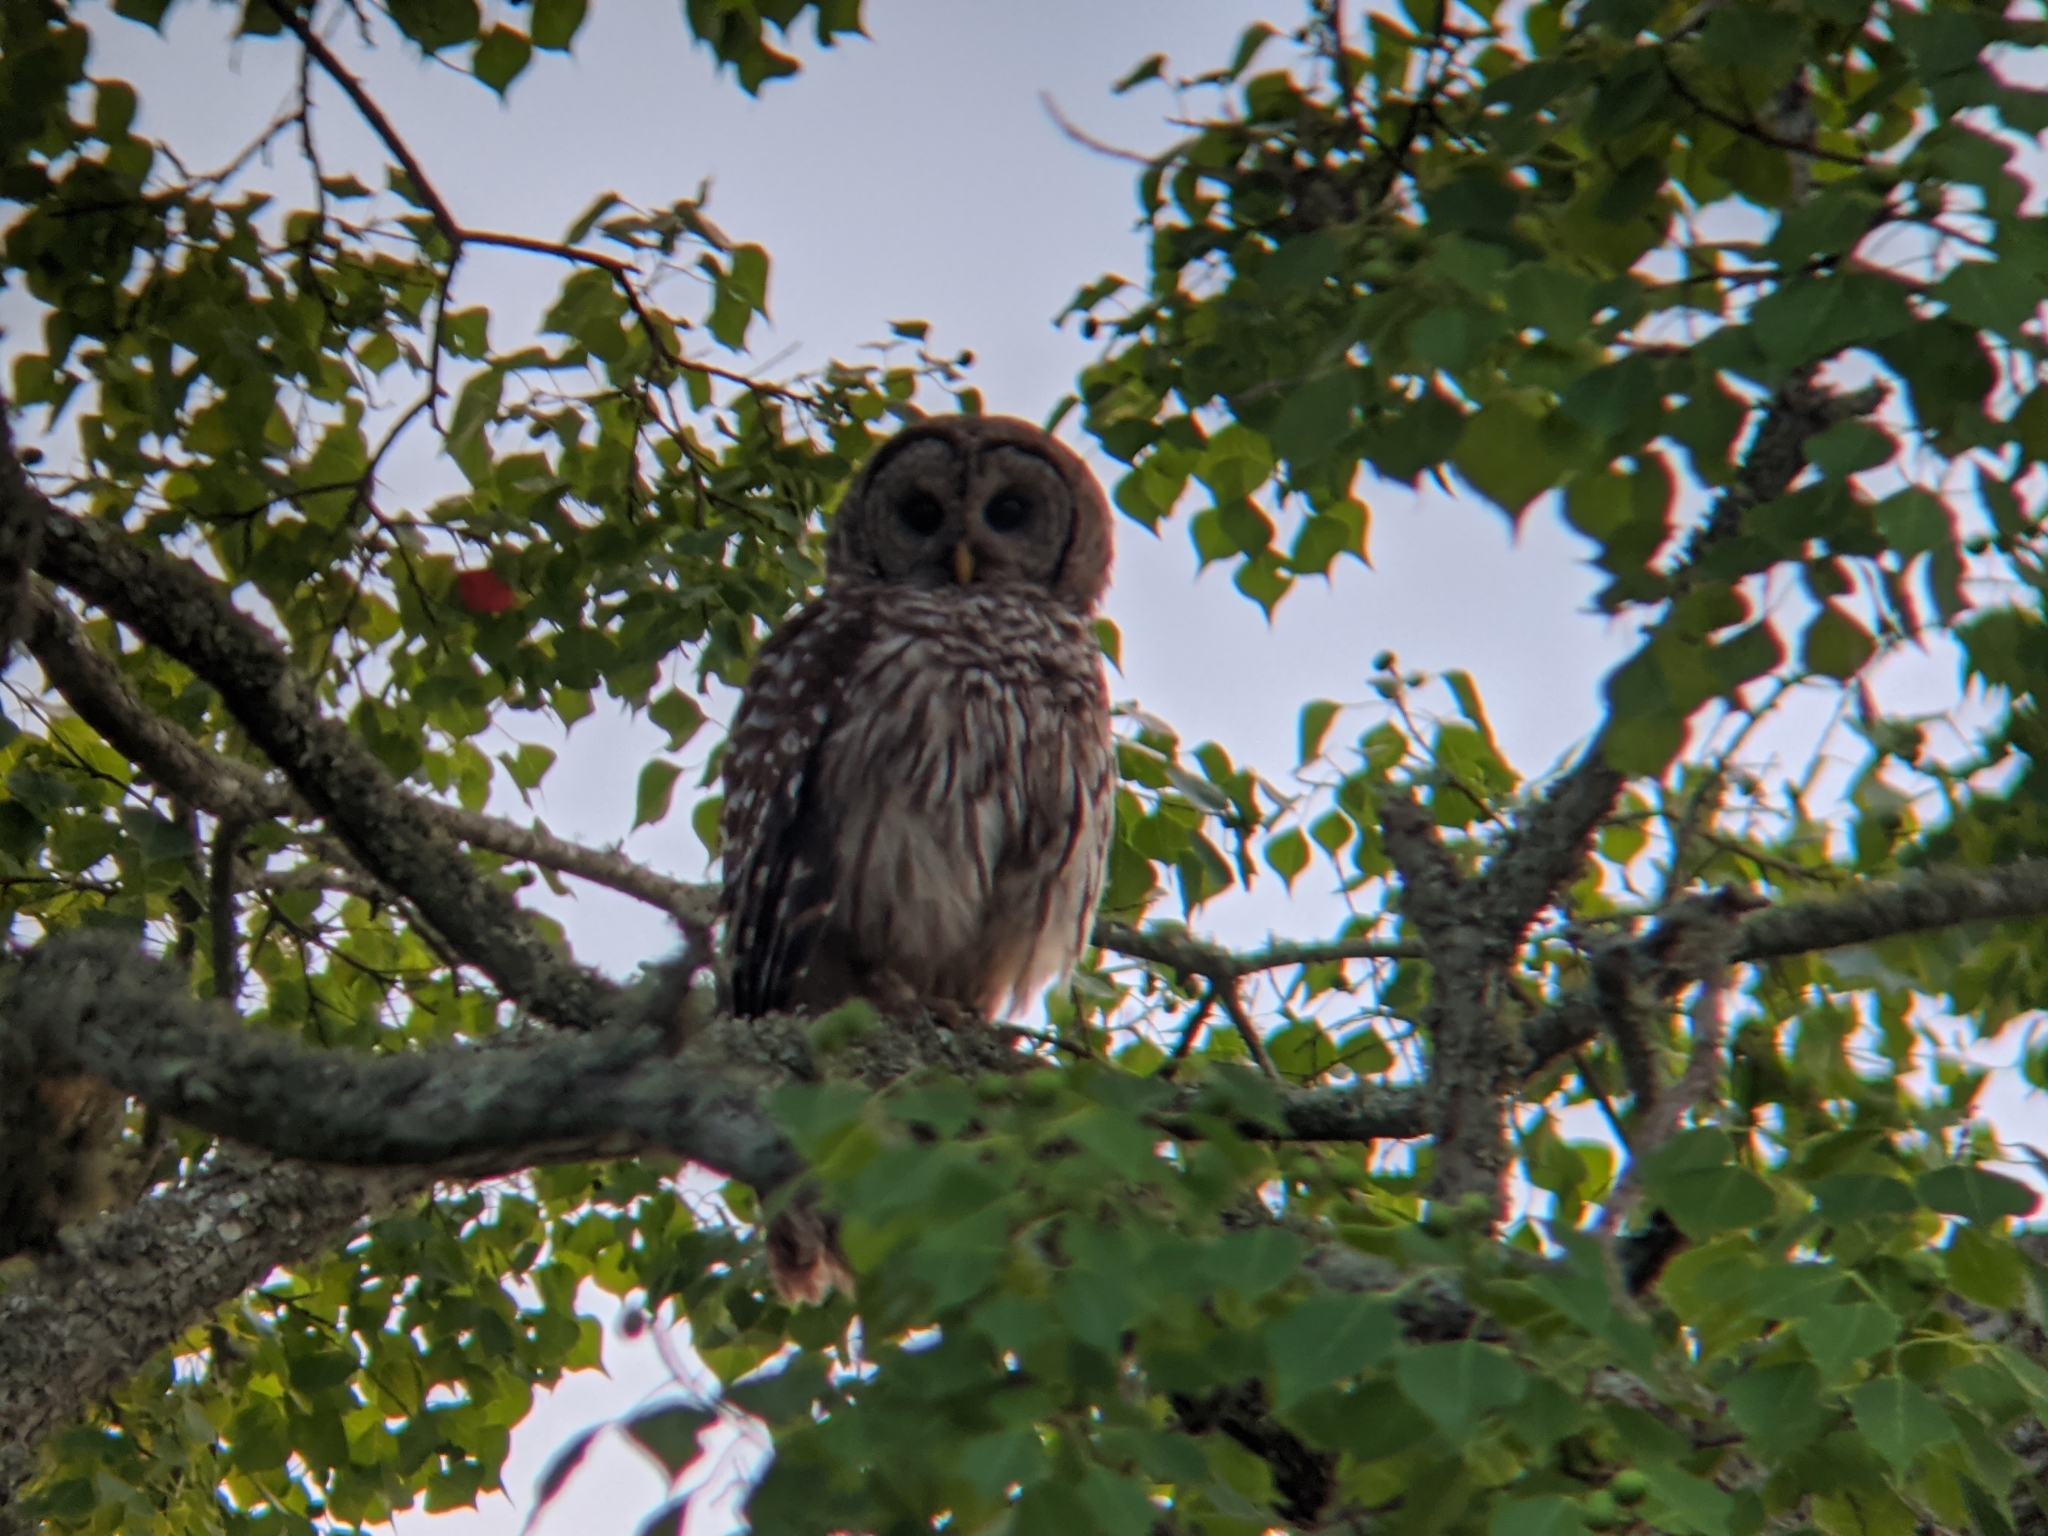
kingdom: Animalia
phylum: Chordata
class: Aves
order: Strigiformes
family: Strigidae
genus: Strix
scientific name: Strix varia
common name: Barred owl
